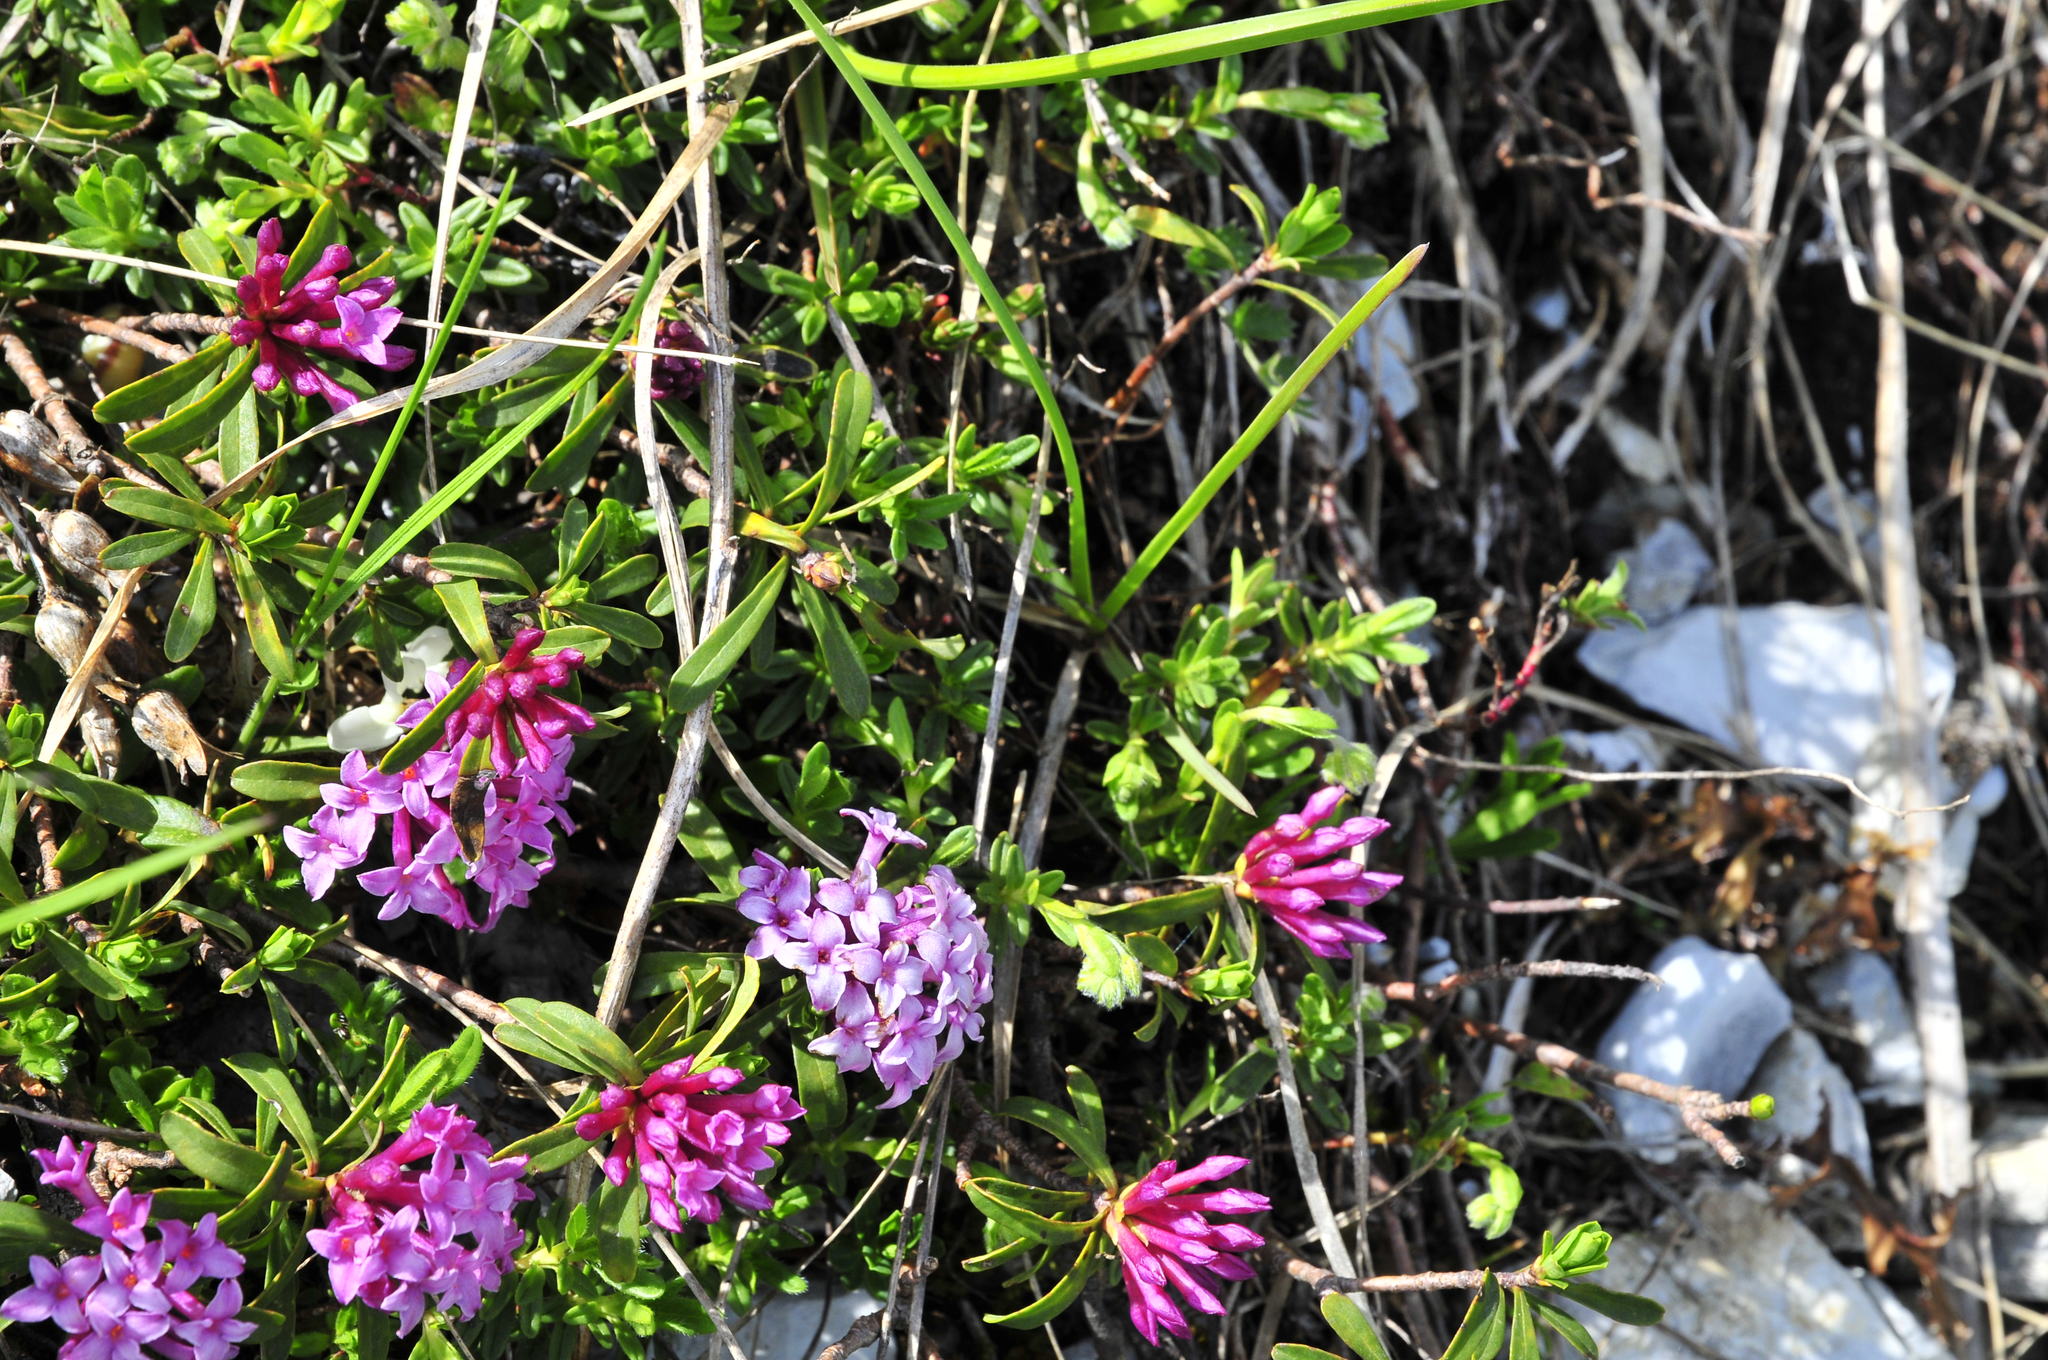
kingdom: Plantae
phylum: Tracheophyta
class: Magnoliopsida
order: Malvales
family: Thymelaeaceae
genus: Daphne
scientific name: Daphne striata
